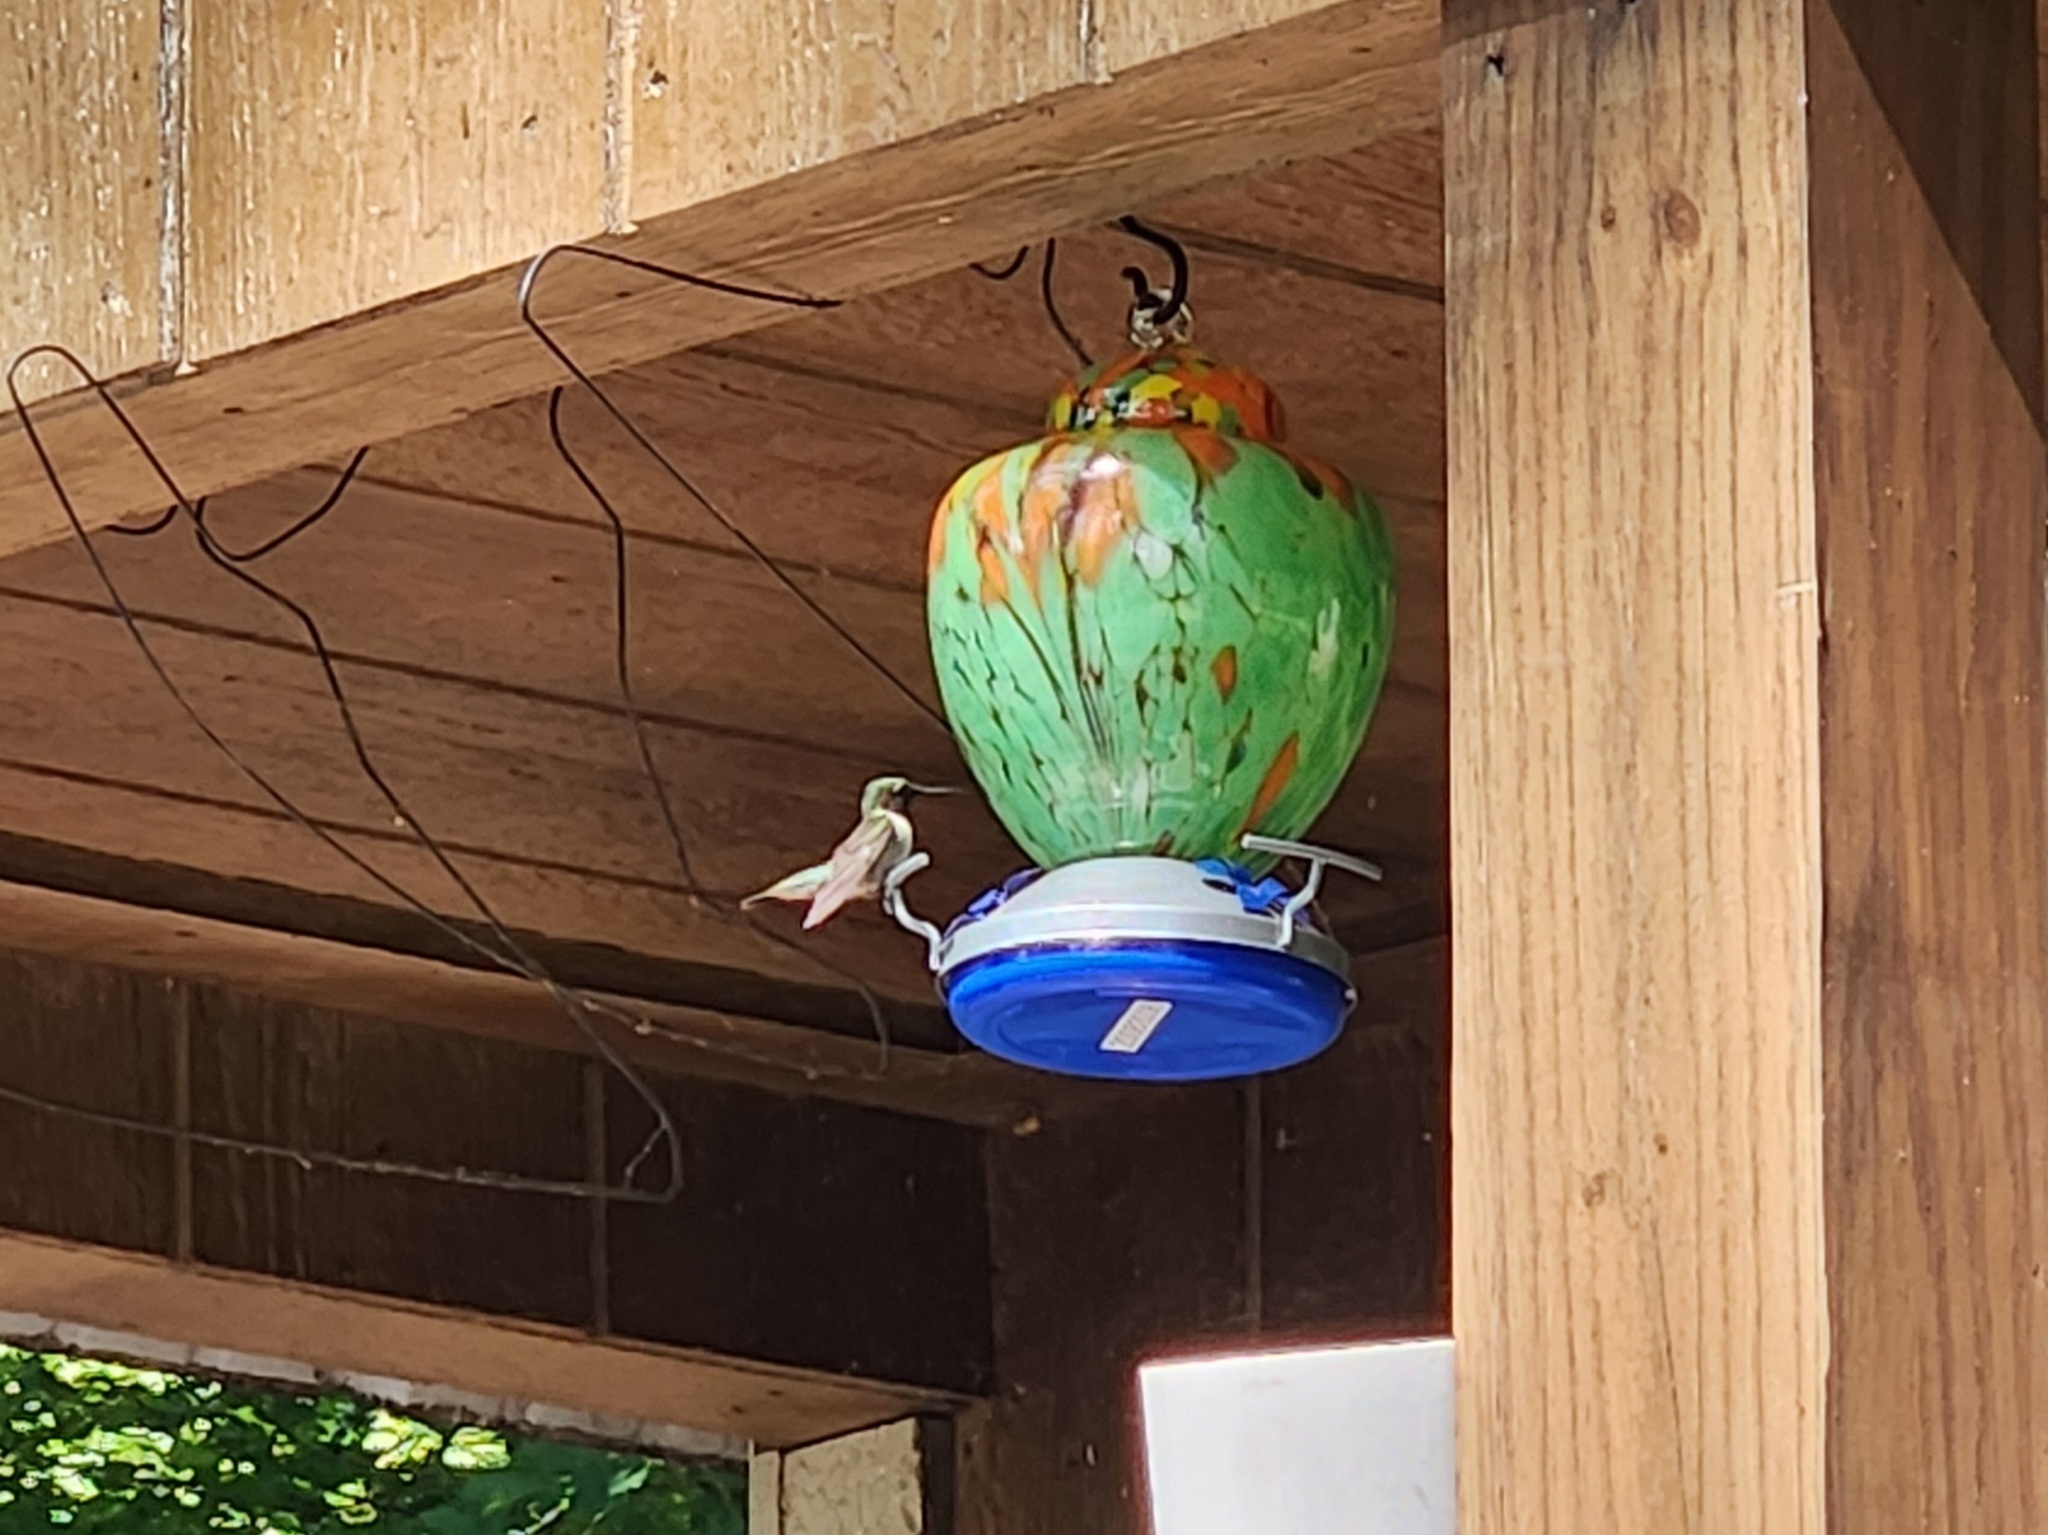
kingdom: Animalia
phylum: Chordata
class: Aves
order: Apodiformes
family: Trochilidae
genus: Archilochus
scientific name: Archilochus colubris
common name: Ruby-throated hummingbird
